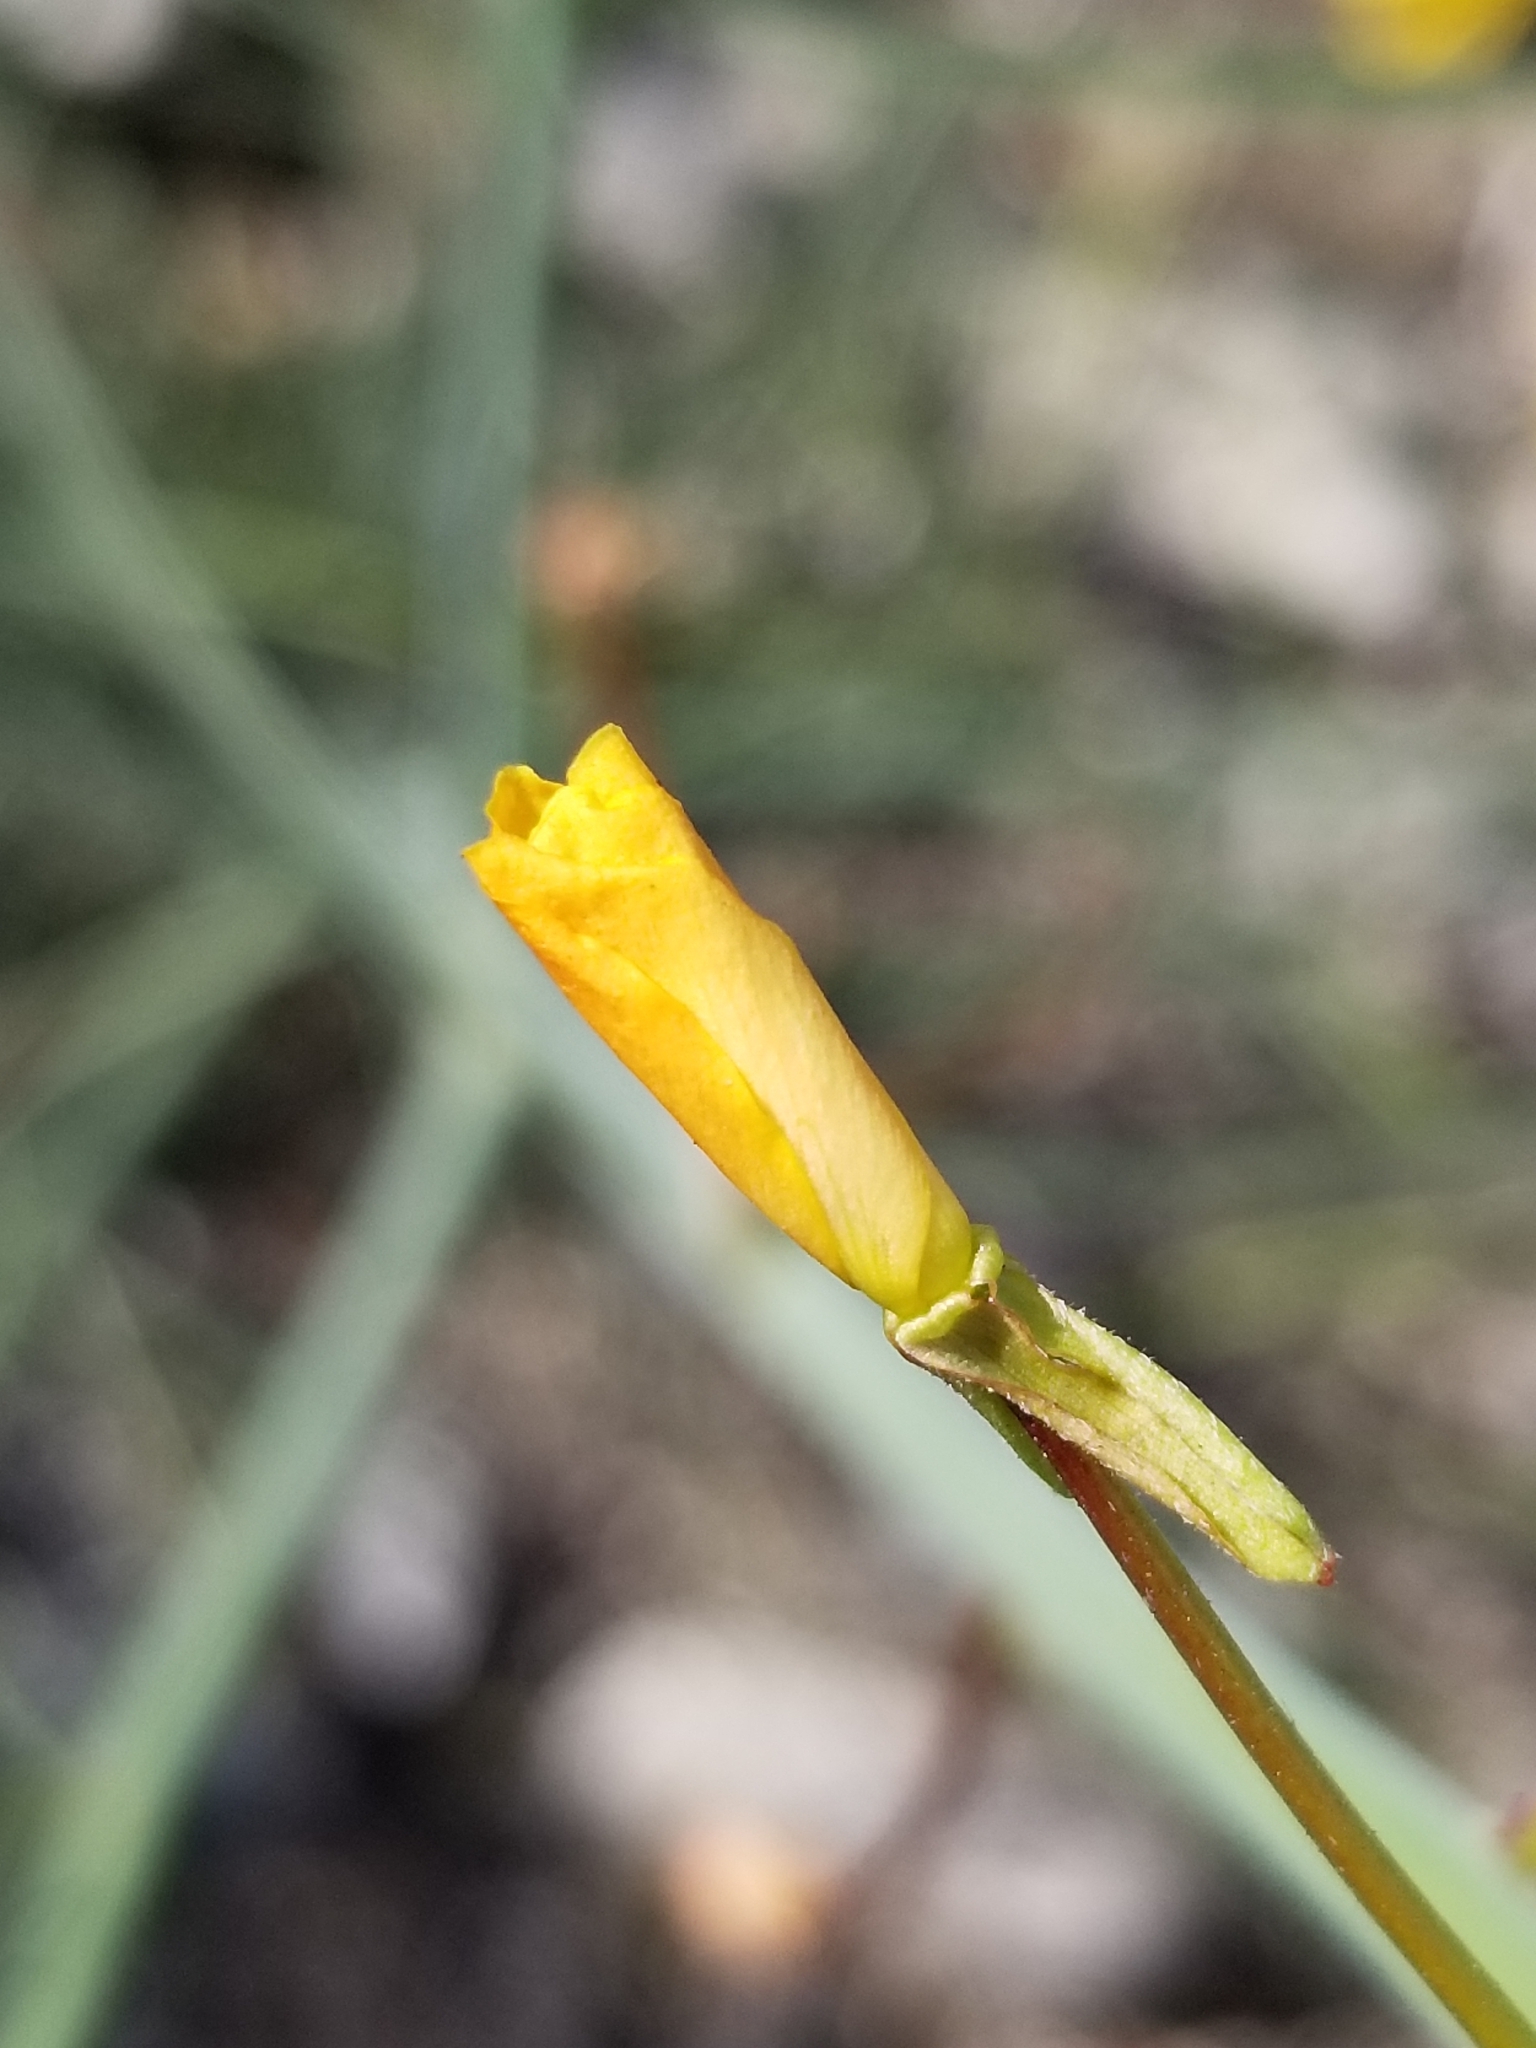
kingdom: Plantae
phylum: Tracheophyta
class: Magnoliopsida
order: Myrtales
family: Onagraceae
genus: Eulobus
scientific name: Eulobus californicus
